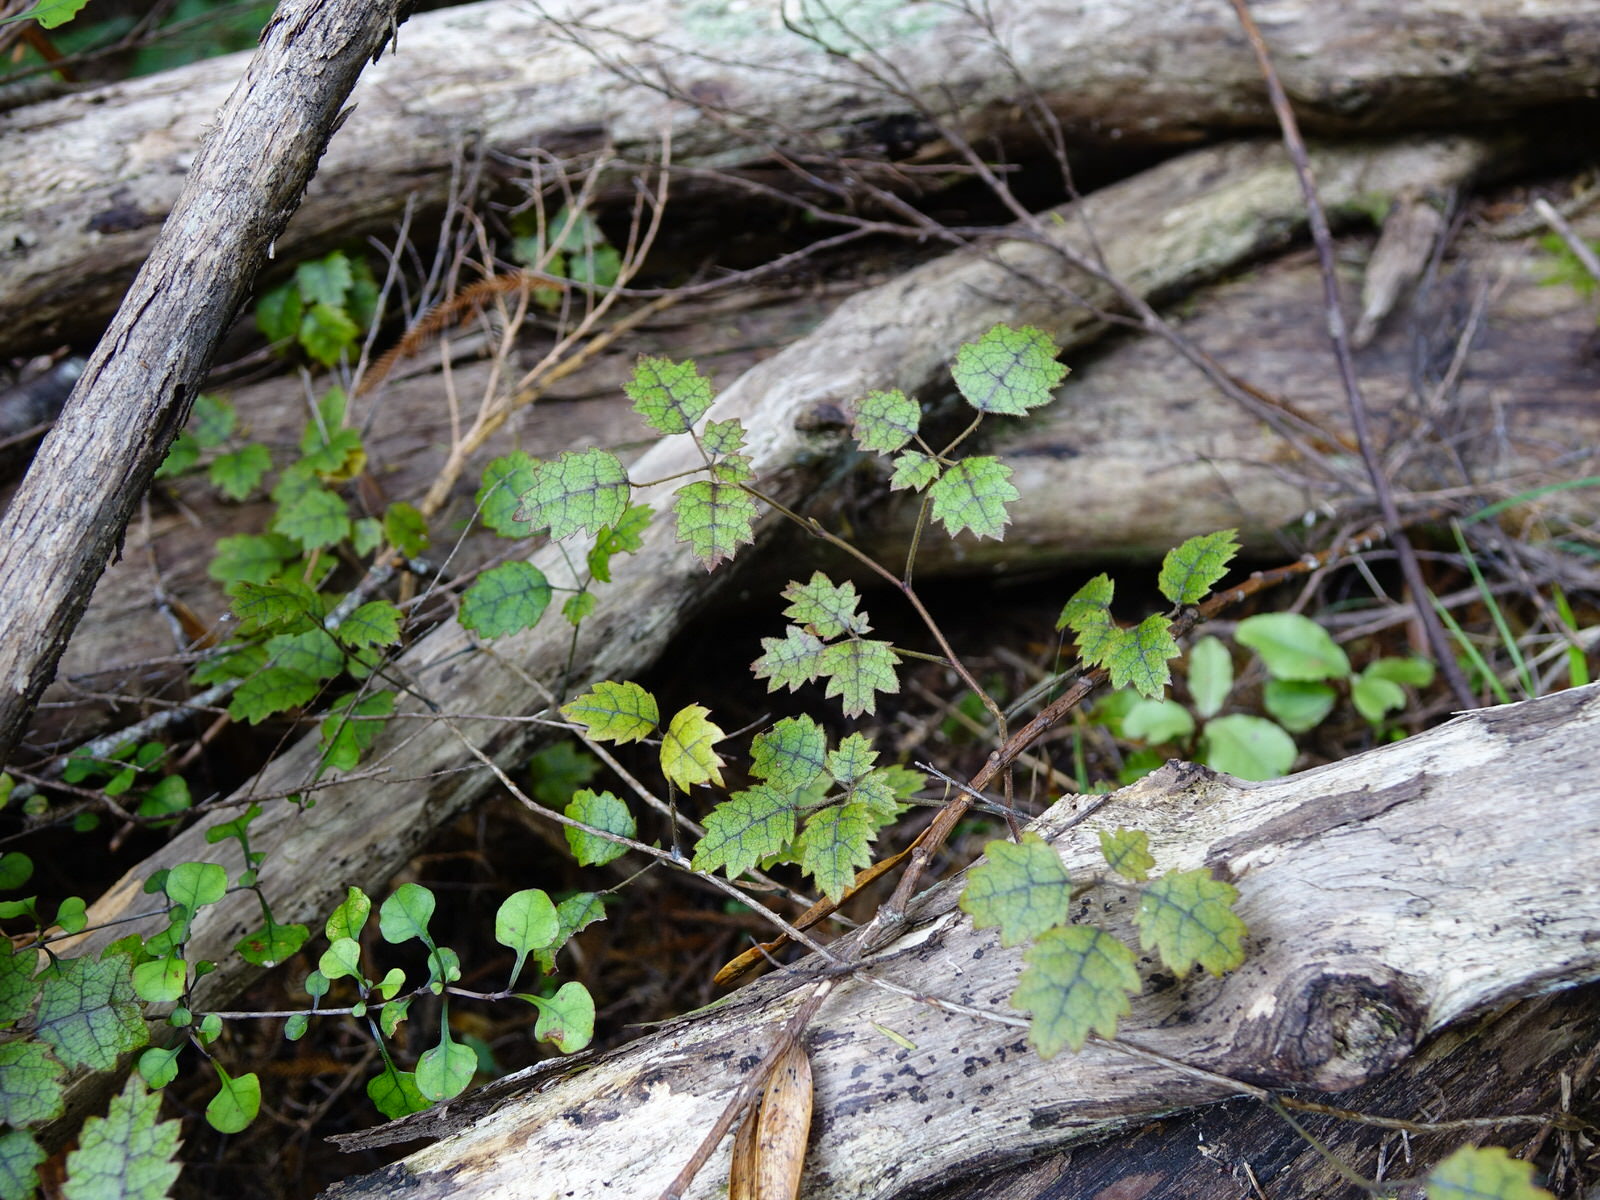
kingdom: Plantae
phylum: Tracheophyta
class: Magnoliopsida
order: Rosales
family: Rosaceae
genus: Rubus
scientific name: Rubus australis
